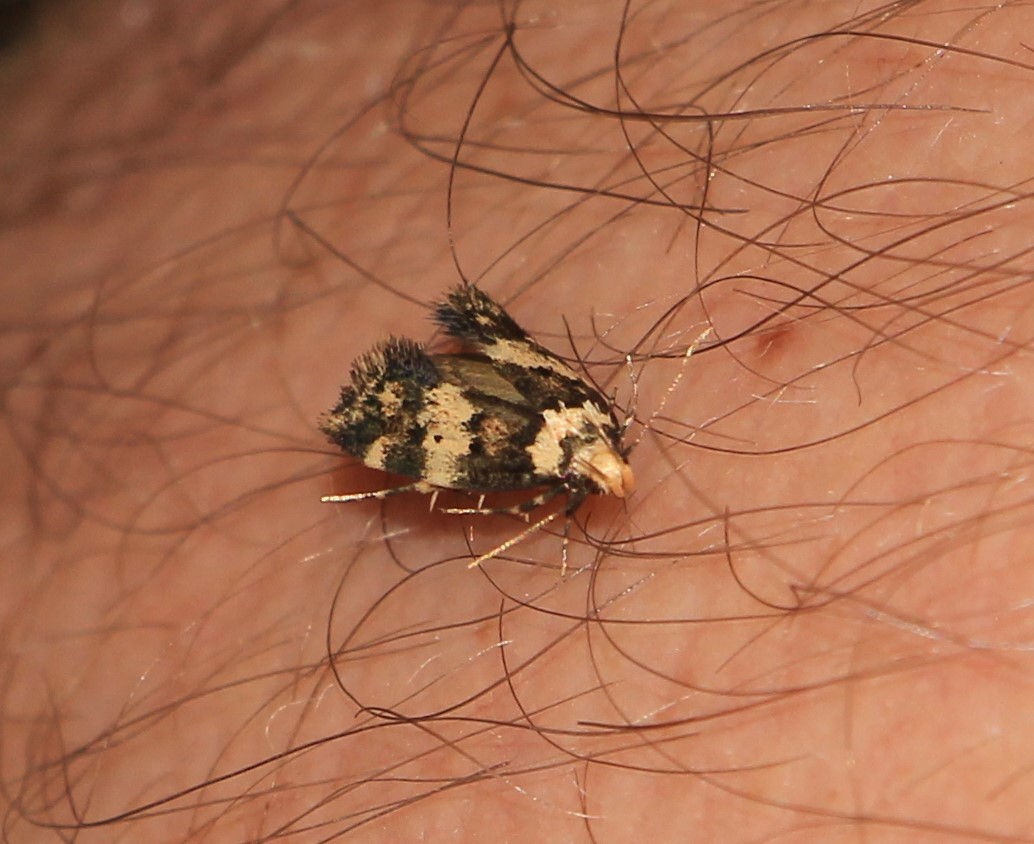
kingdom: Animalia
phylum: Arthropoda
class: Insecta
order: Lepidoptera
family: Oecophoridae
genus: Sphyrelata
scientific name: Sphyrelata amotella
